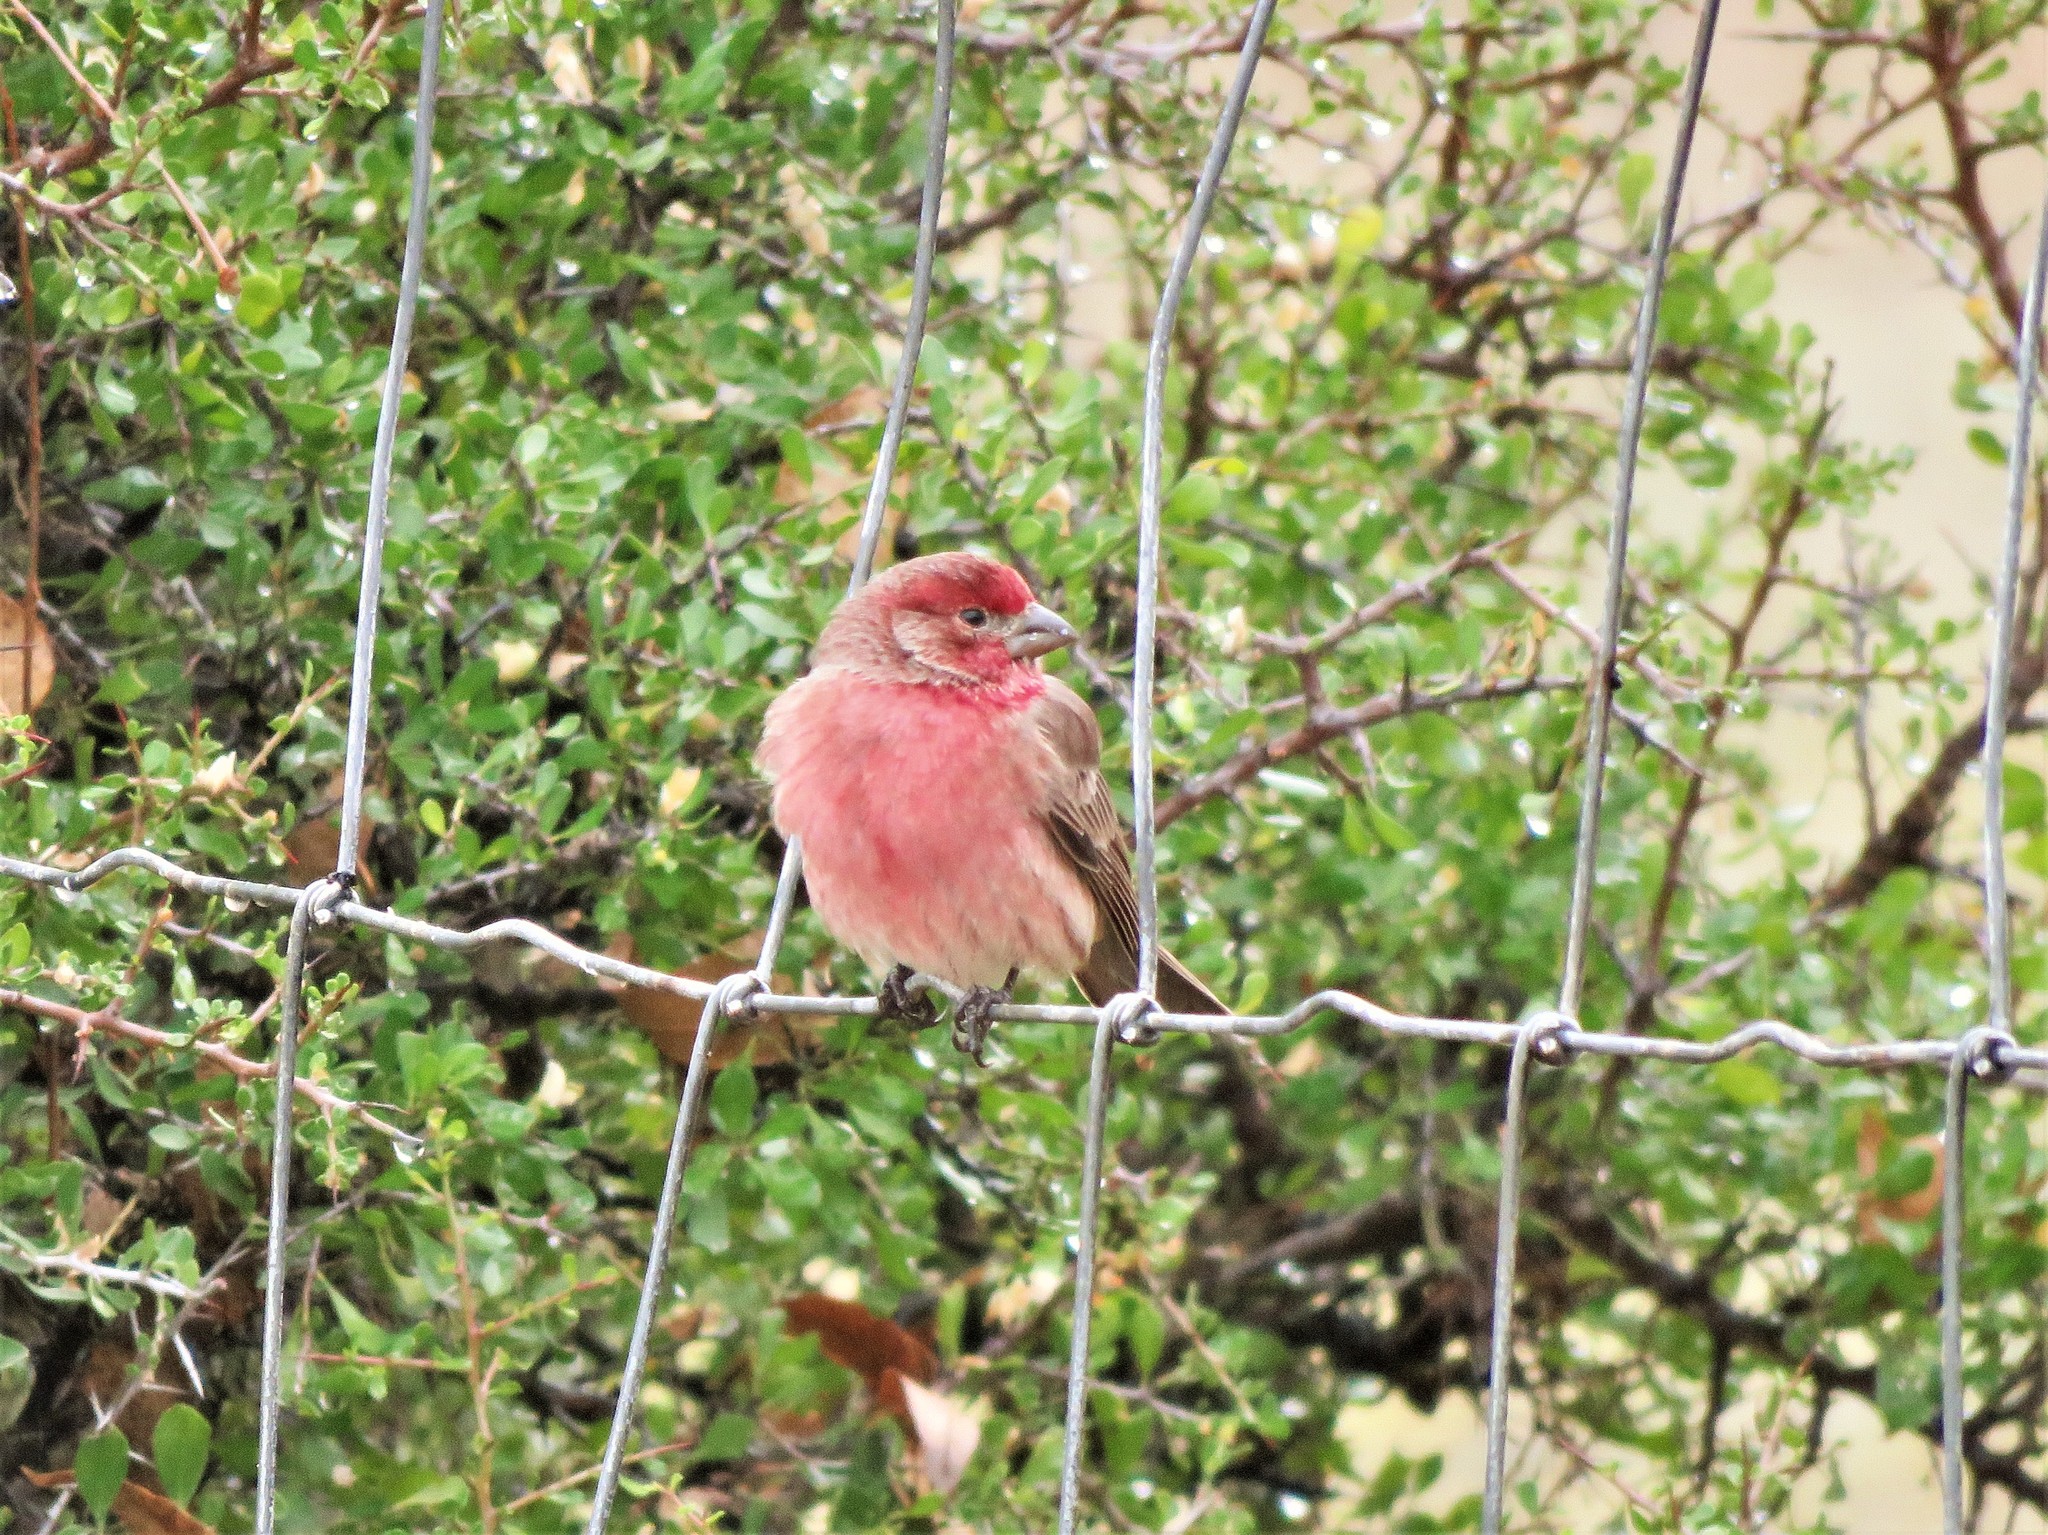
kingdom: Animalia
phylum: Chordata
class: Aves
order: Passeriformes
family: Fringillidae
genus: Haemorhous
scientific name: Haemorhous mexicanus
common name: House finch
